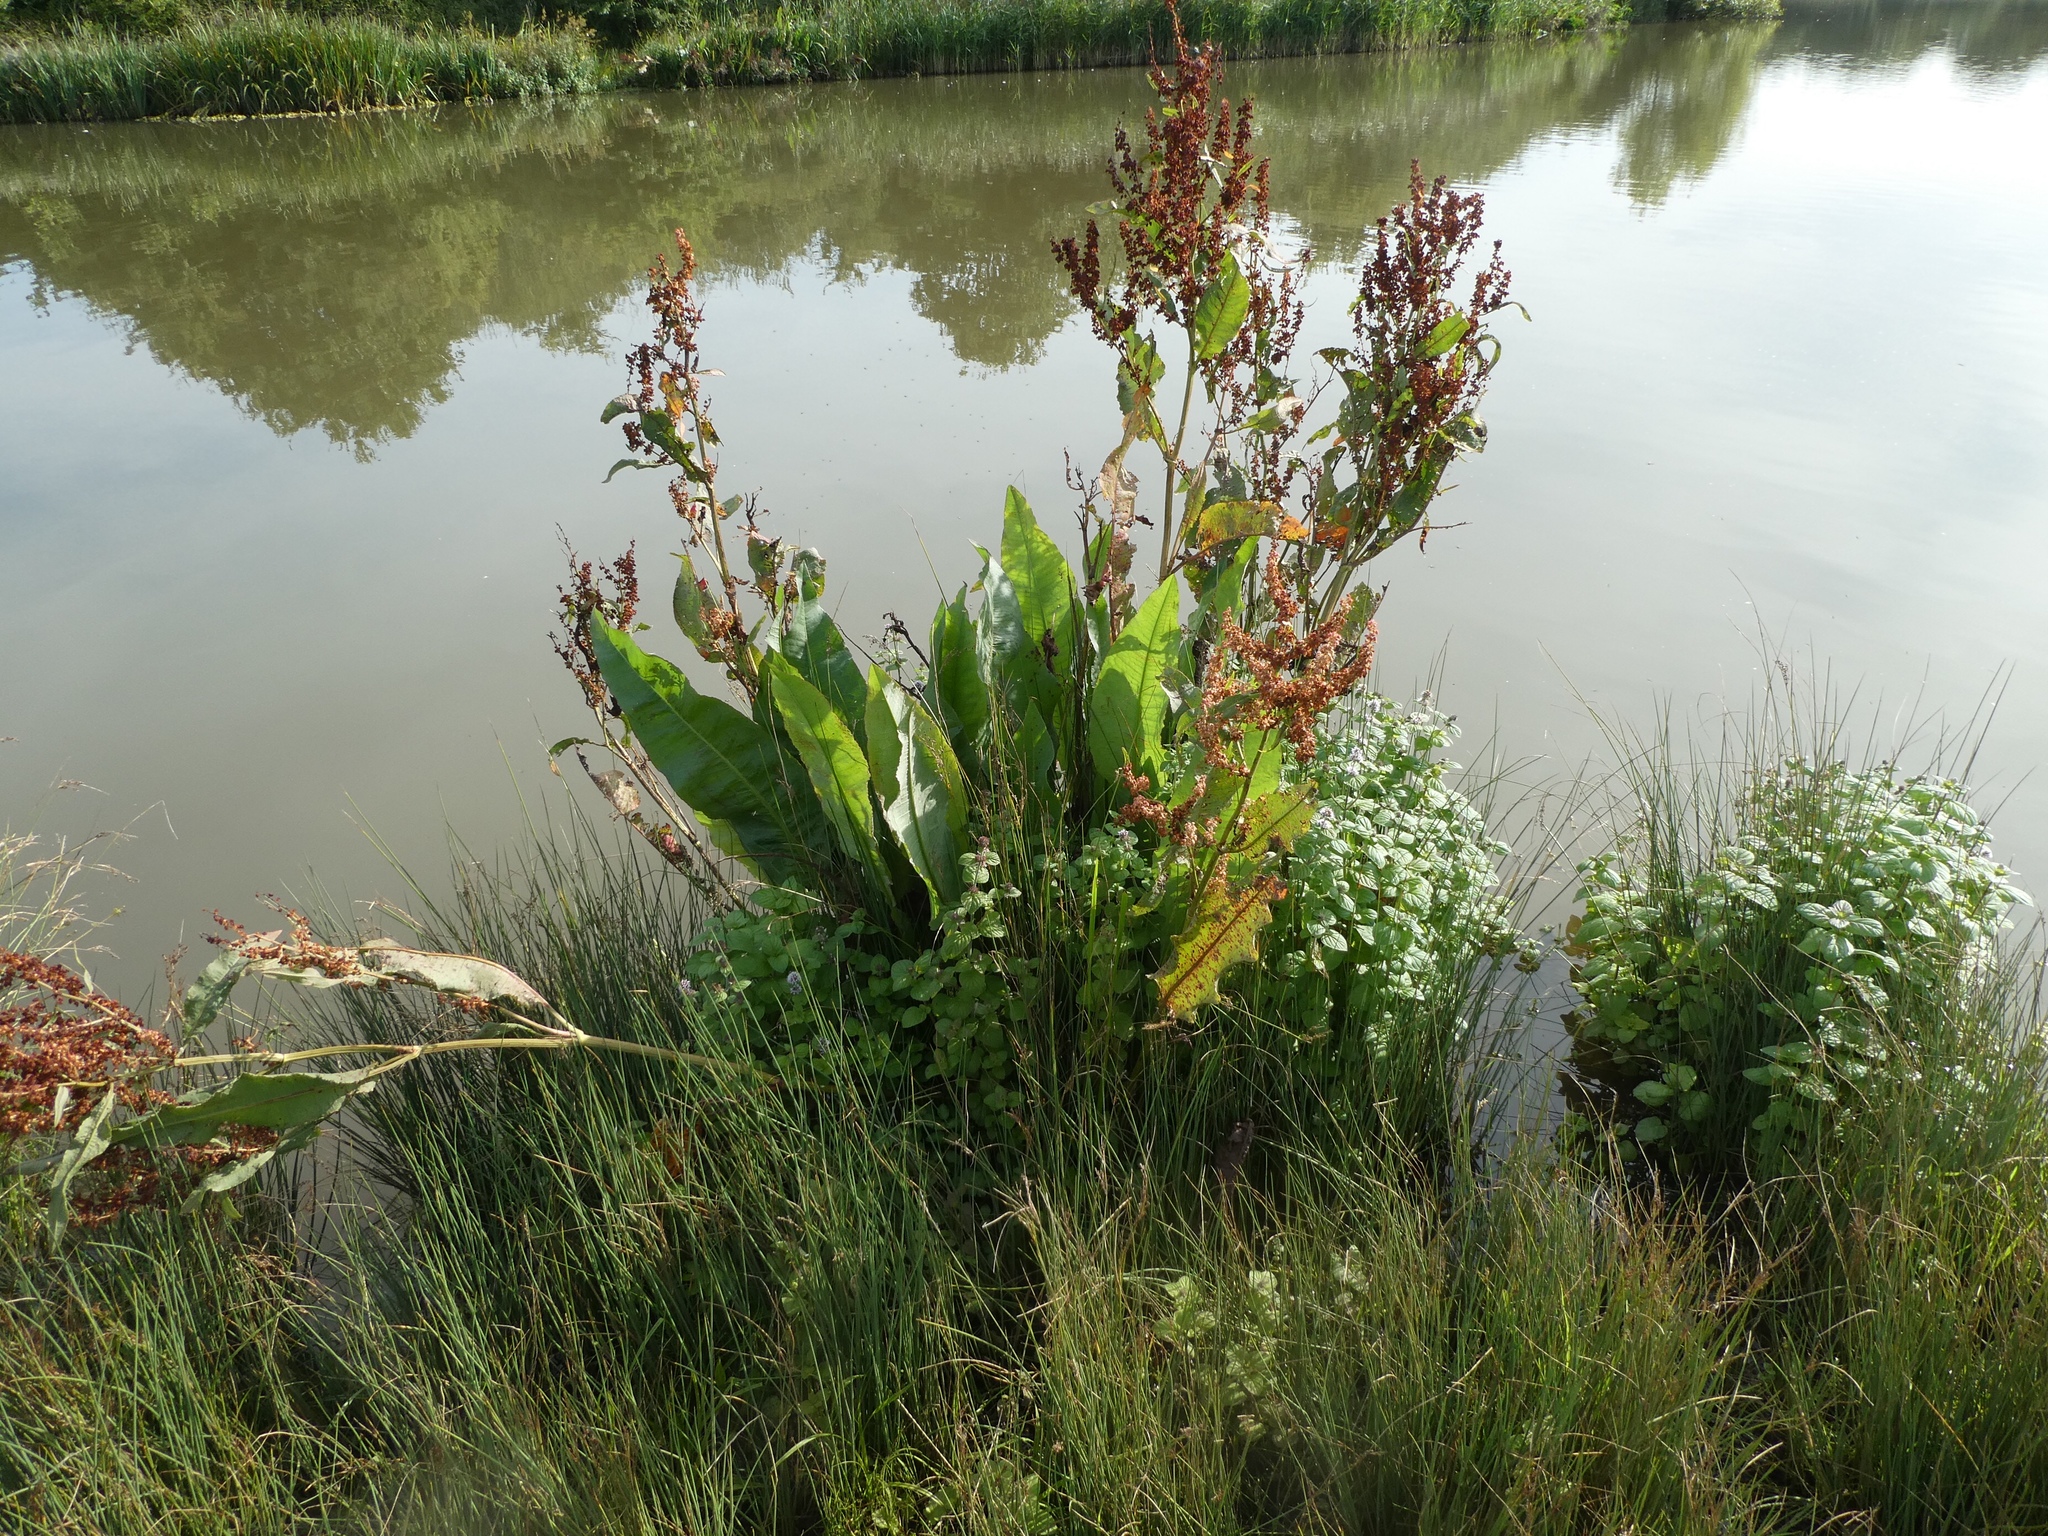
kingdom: Plantae
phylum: Tracheophyta
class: Magnoliopsida
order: Caryophyllales
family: Polygonaceae
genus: Rumex
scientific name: Rumex hydrolapathum
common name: Water dock
